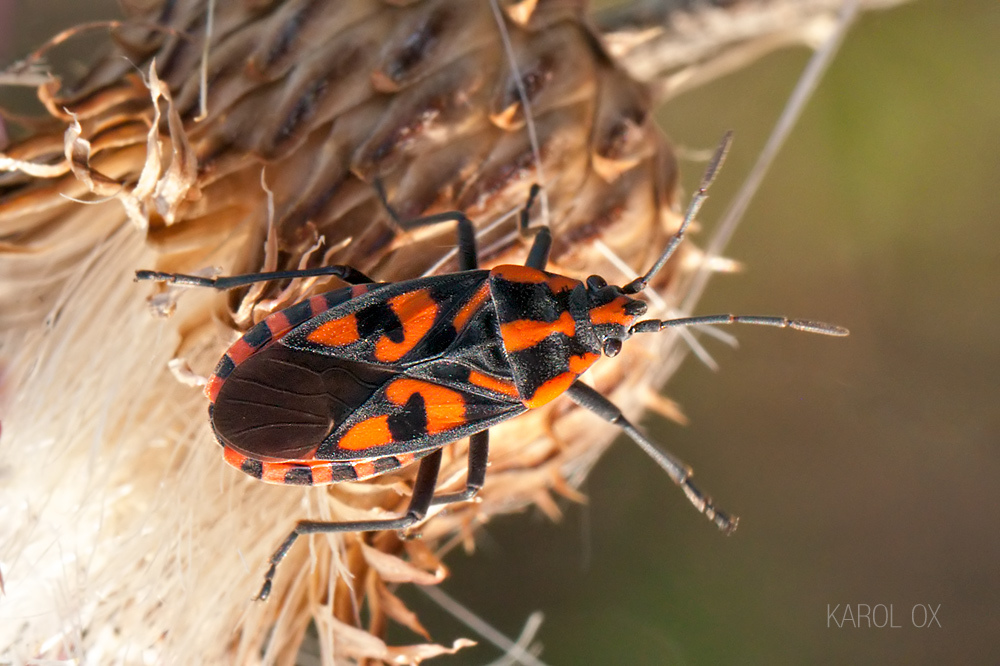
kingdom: Animalia
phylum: Arthropoda
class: Insecta
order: Hemiptera
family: Lygaeidae
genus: Spilostethus
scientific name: Spilostethus saxatilis
